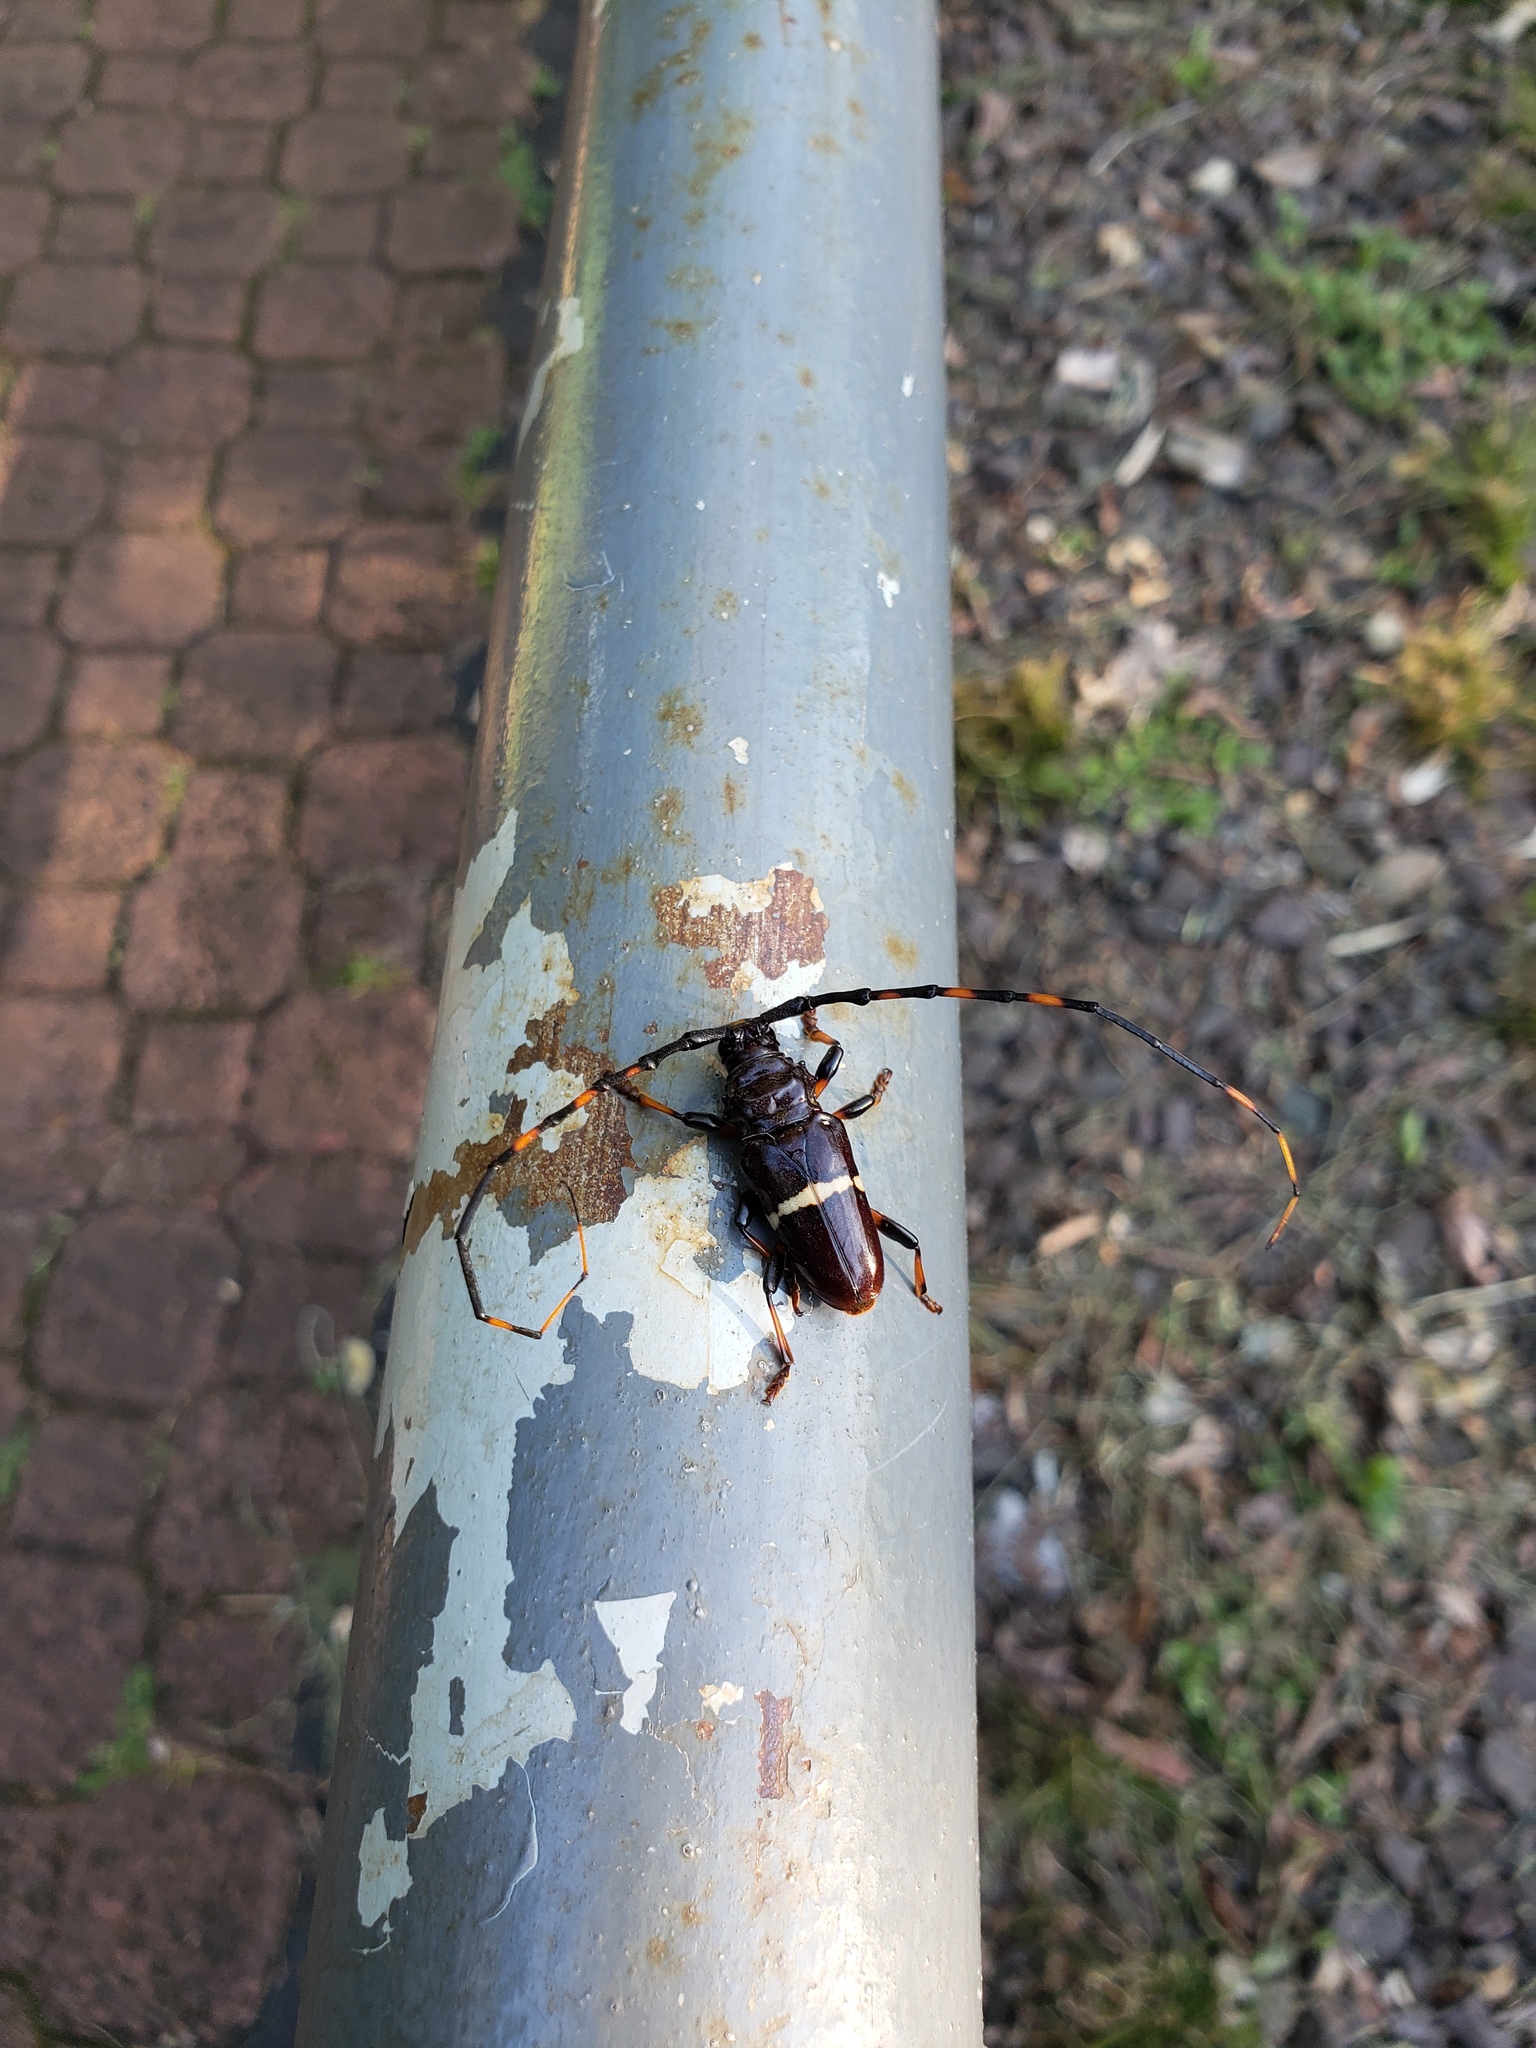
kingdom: Animalia
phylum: Arthropoda
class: Insecta
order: Coleoptera
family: Cerambycidae
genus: Trachyderes
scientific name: Trachyderes succinctus
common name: Mango longhorn
